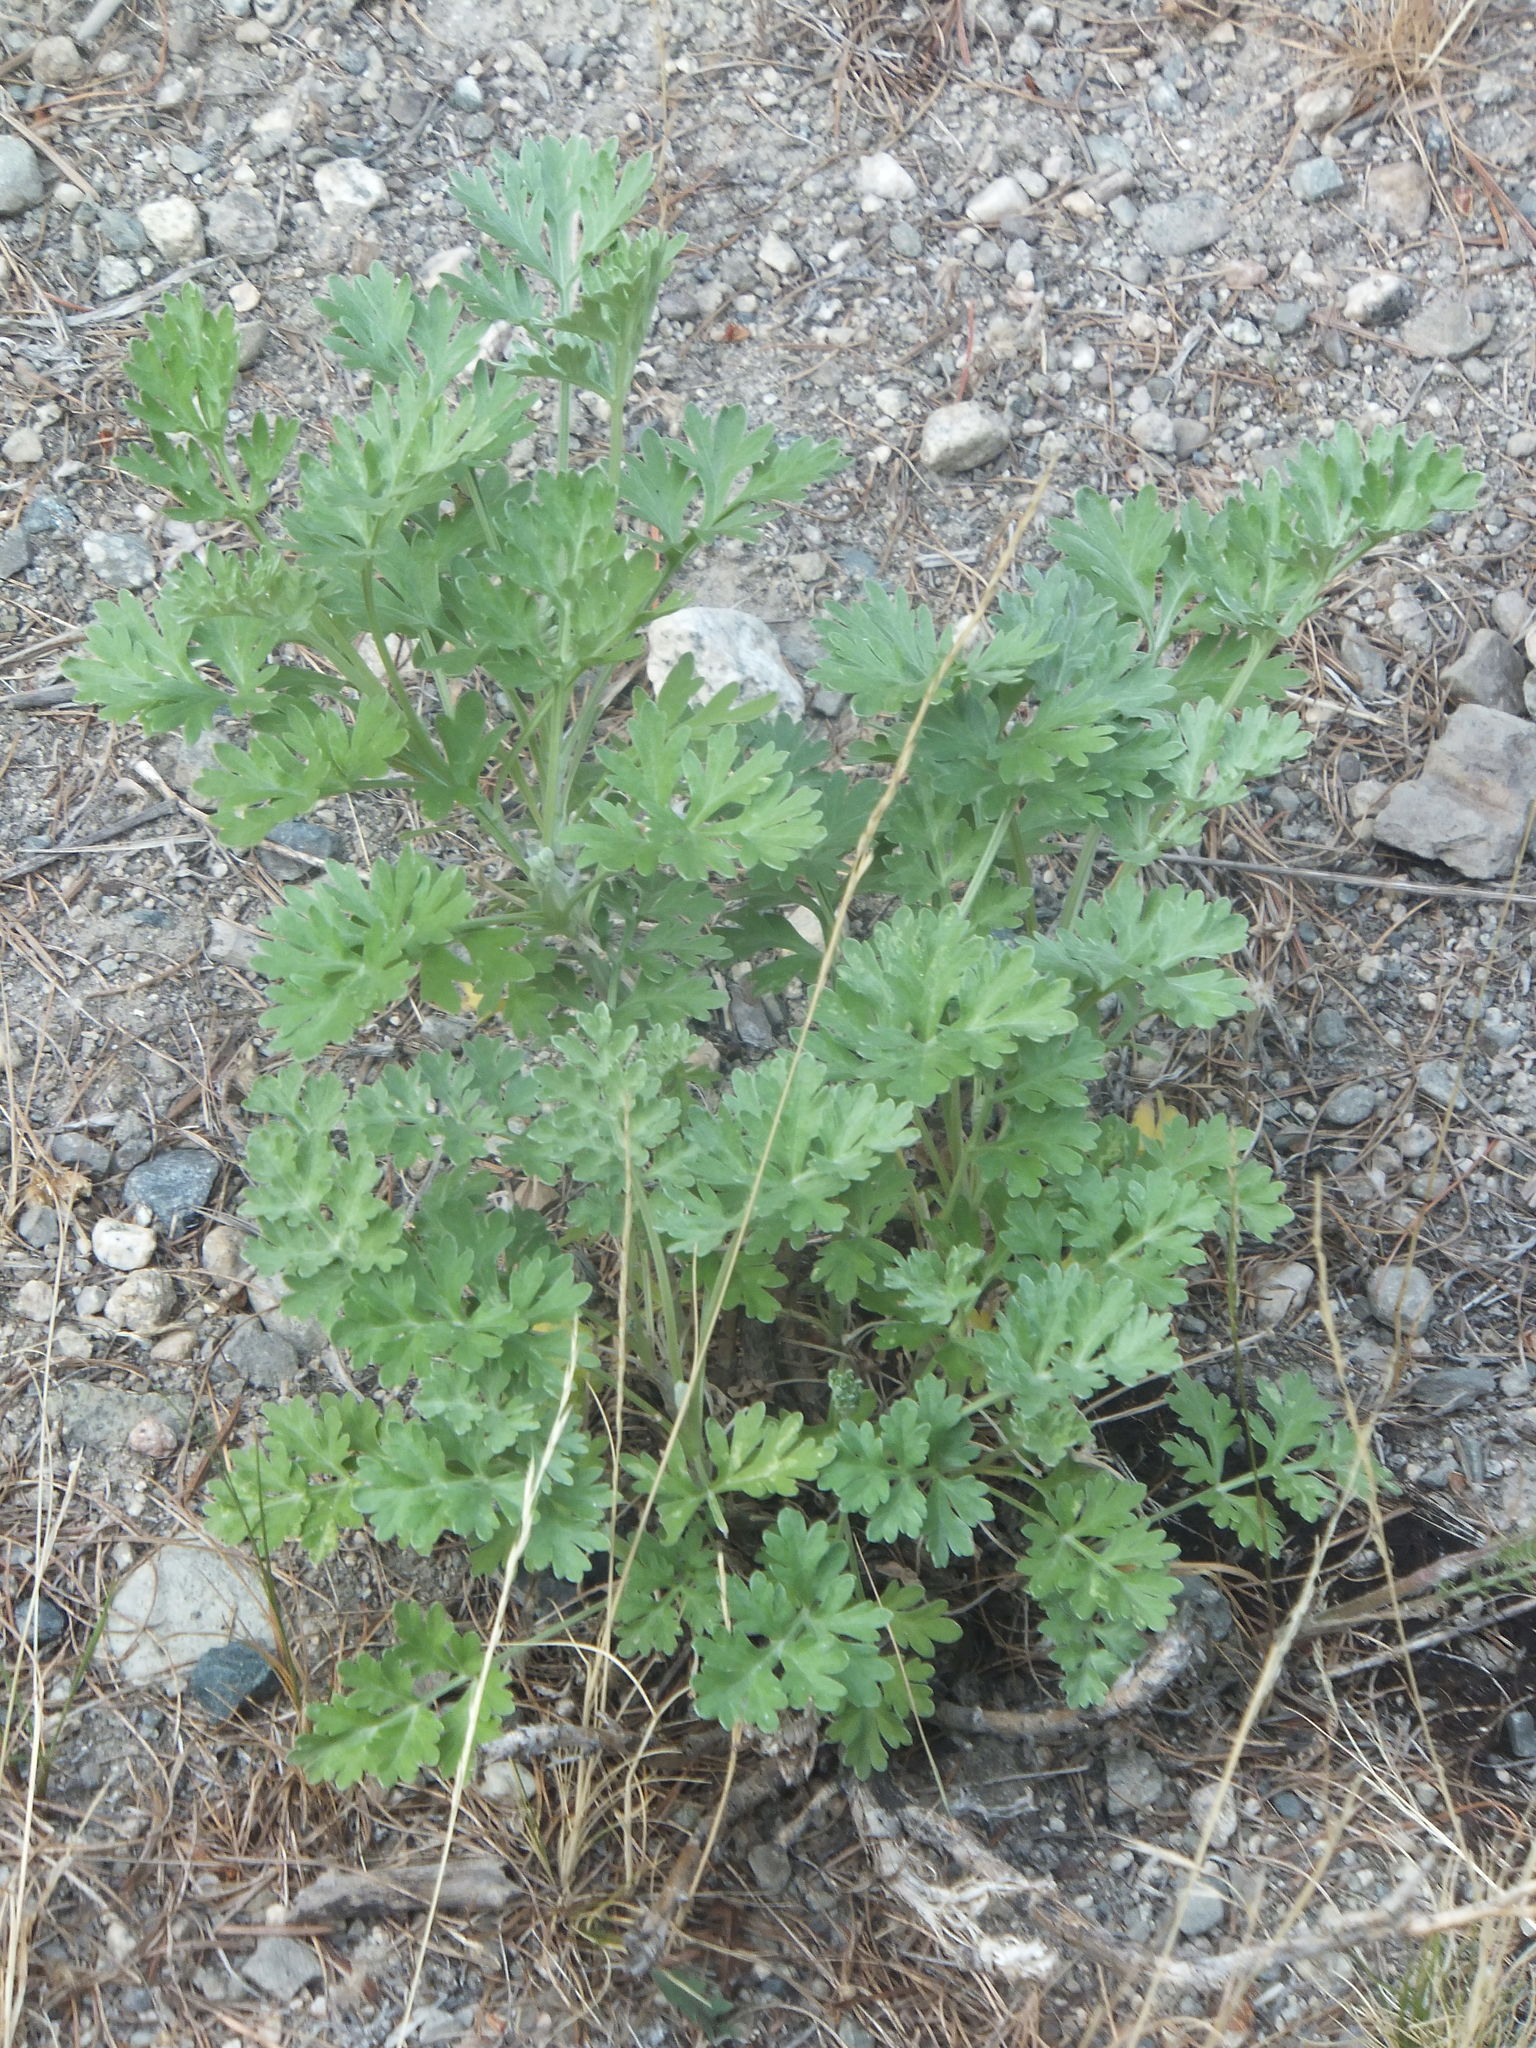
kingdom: Plantae
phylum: Tracheophyta
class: Magnoliopsida
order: Asterales
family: Asteraceae
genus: Artemisia
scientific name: Artemisia absinthium
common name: Wormwood
